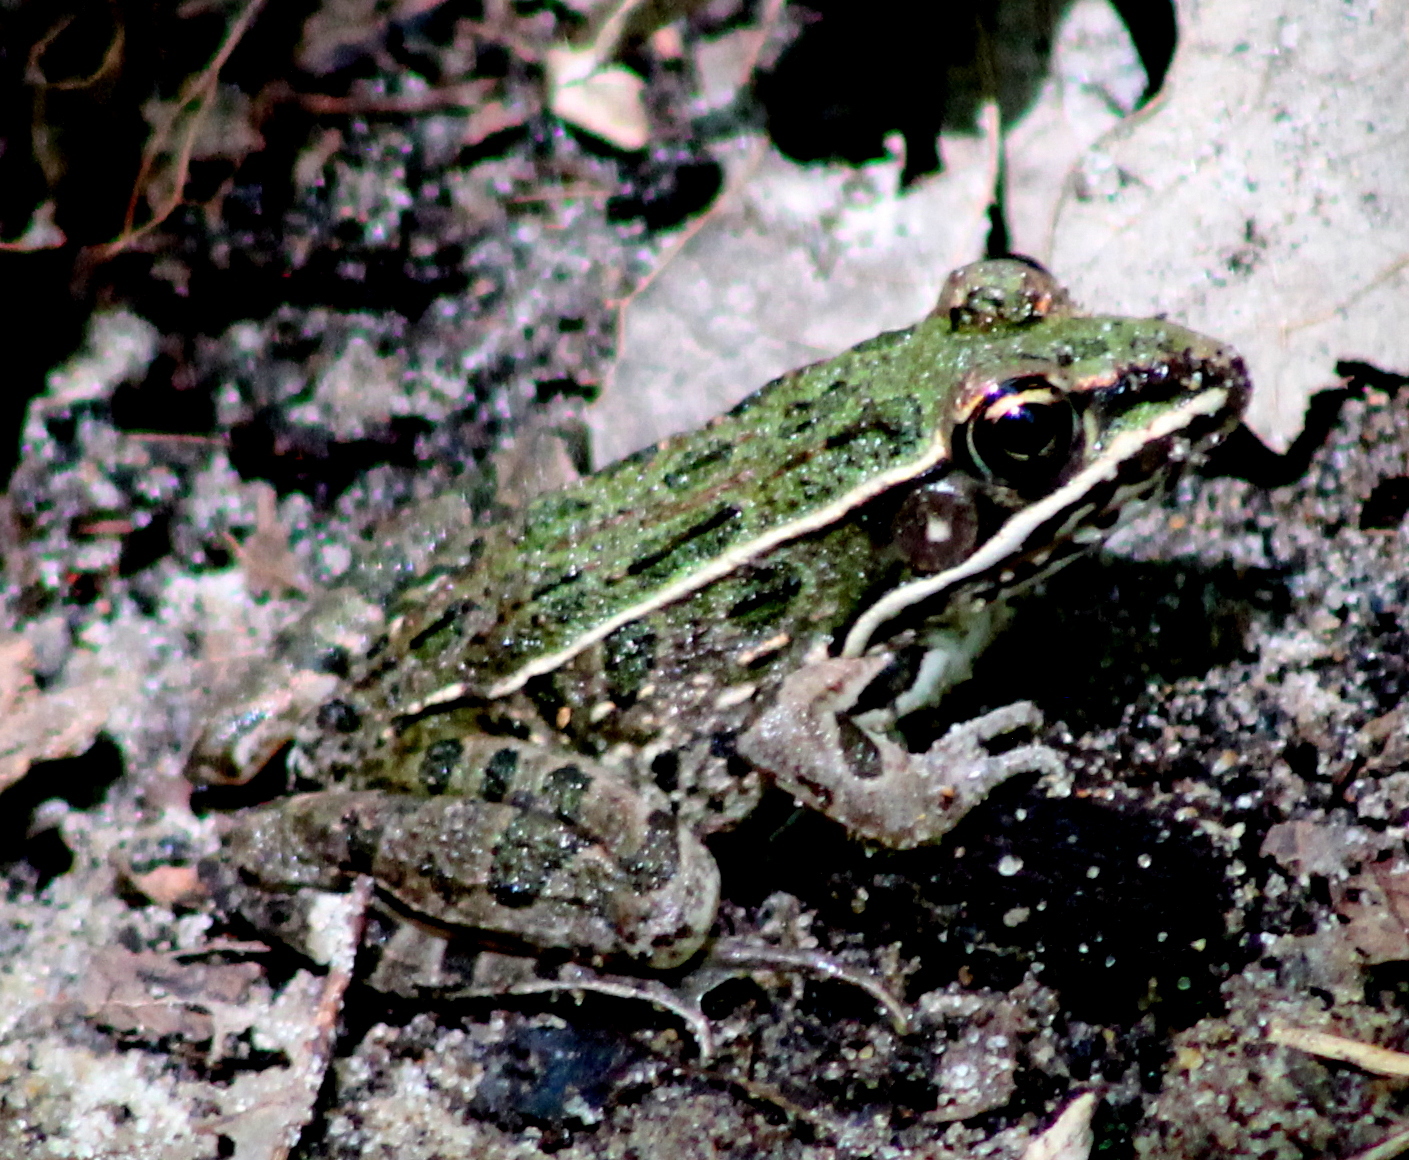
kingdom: Animalia
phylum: Chordata
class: Amphibia
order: Anura
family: Ranidae
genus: Lithobates
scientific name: Lithobates blairi
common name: Plains leopard frog
